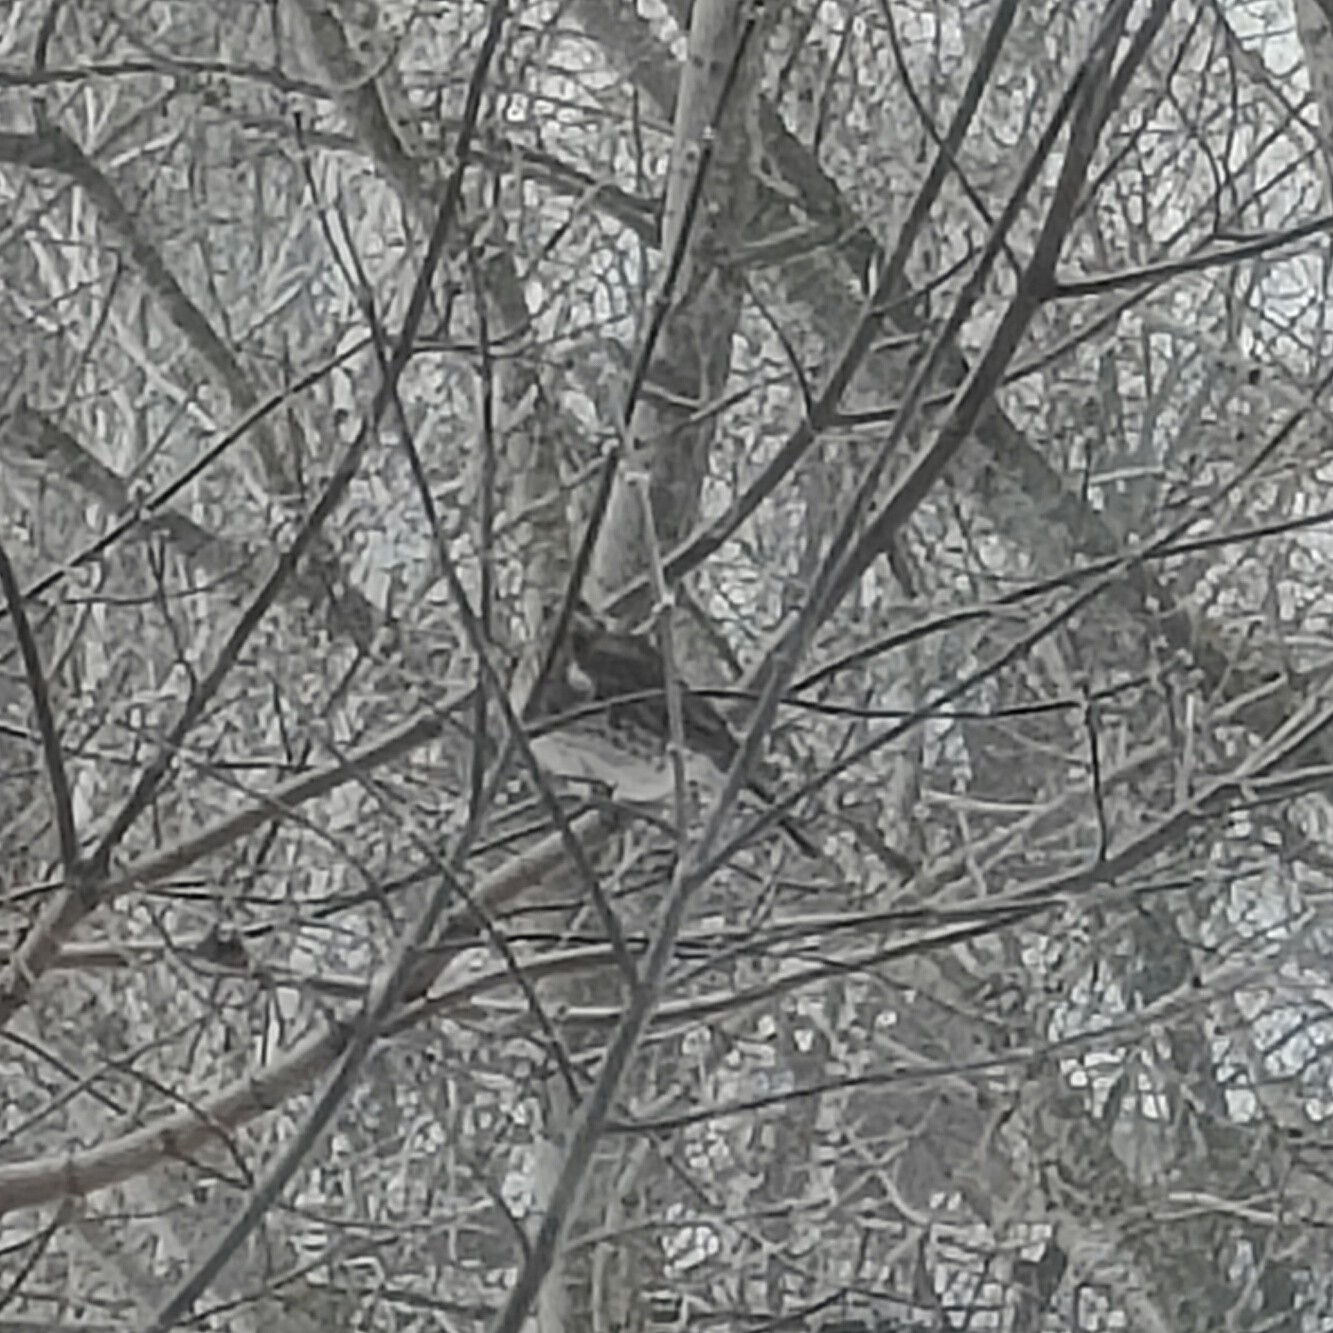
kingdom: Animalia
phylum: Chordata
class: Aves
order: Passeriformes
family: Turdidae
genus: Turdus
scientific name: Turdus pilaris
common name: Fieldfare
